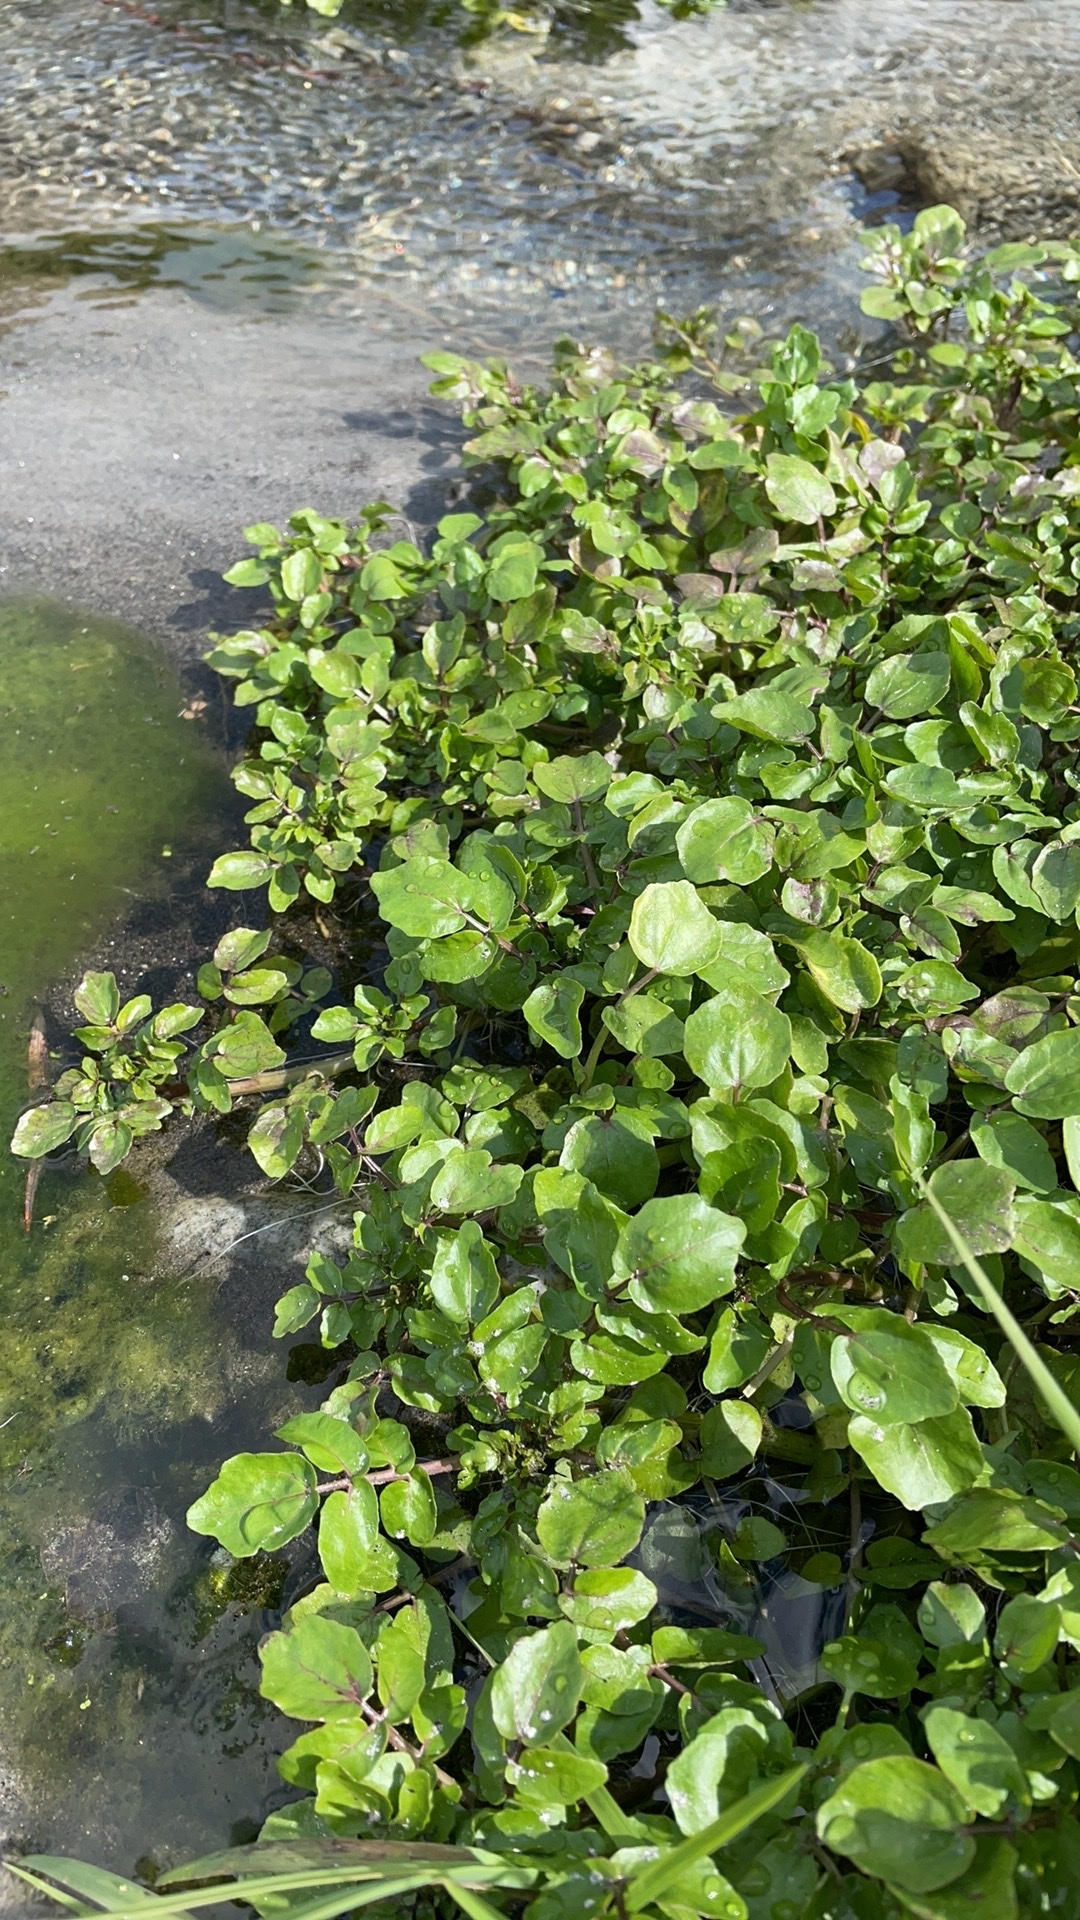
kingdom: Plantae
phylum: Tracheophyta
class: Magnoliopsida
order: Brassicales
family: Brassicaceae
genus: Nasturtium
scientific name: Nasturtium officinale
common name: Watercress
